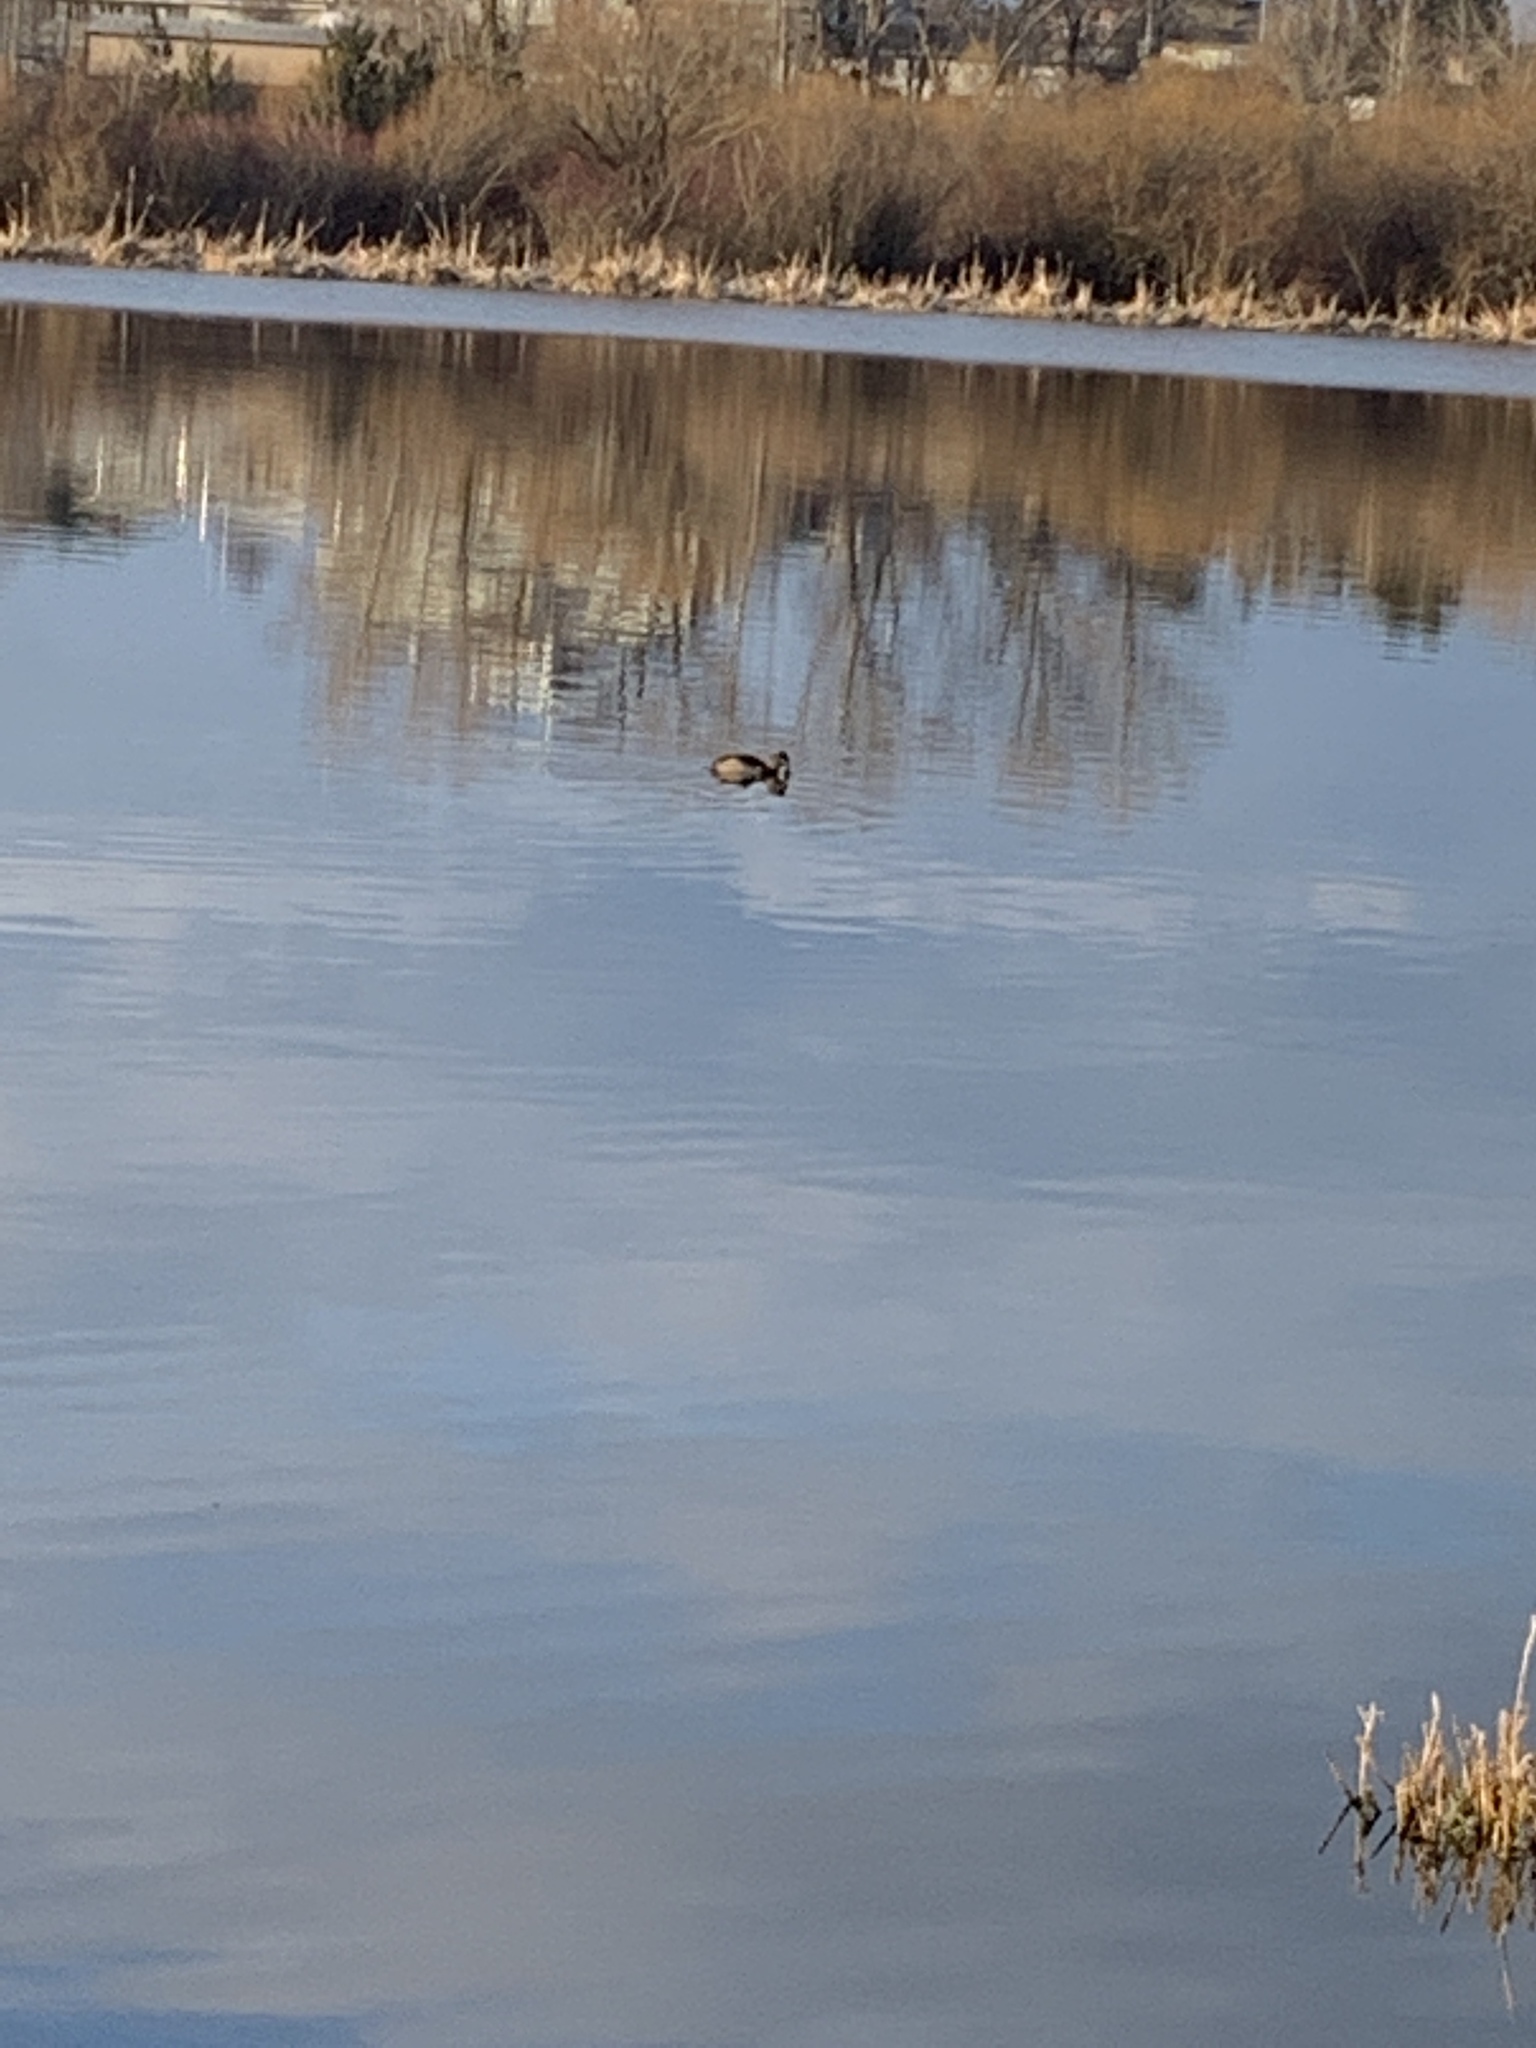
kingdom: Animalia
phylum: Chordata
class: Aves
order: Anseriformes
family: Anatidae
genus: Aythya
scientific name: Aythya collaris
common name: Ring-necked duck
